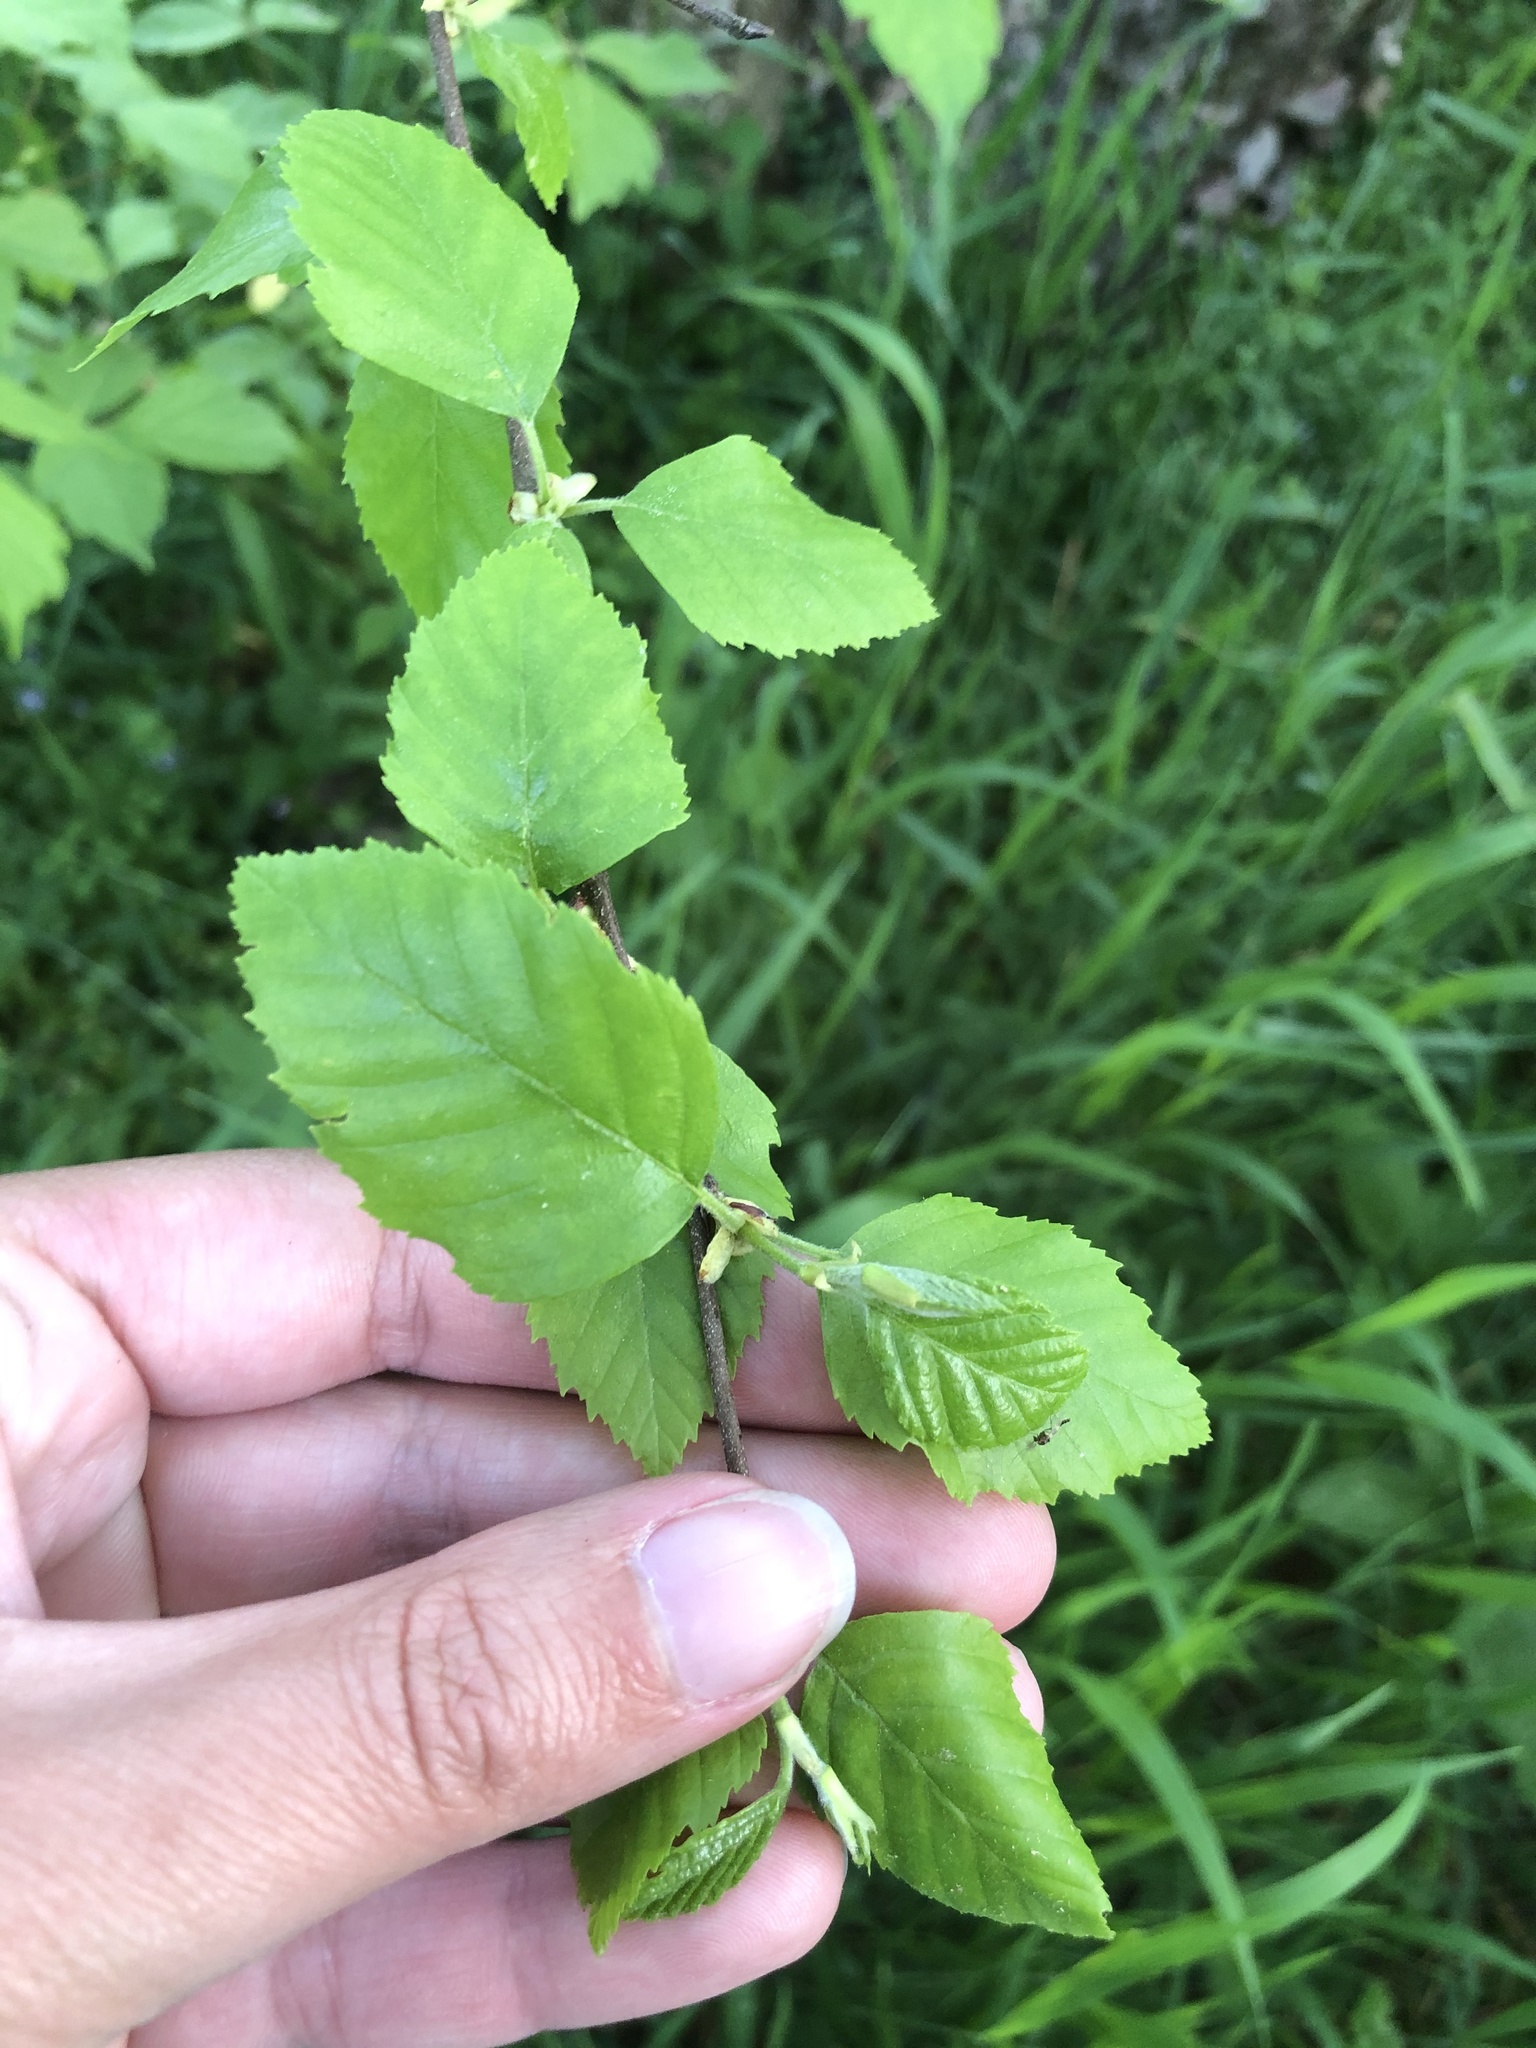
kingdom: Plantae
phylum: Tracheophyta
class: Magnoliopsida
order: Fagales
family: Betulaceae
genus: Betula
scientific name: Betula nigra
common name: Black birch
